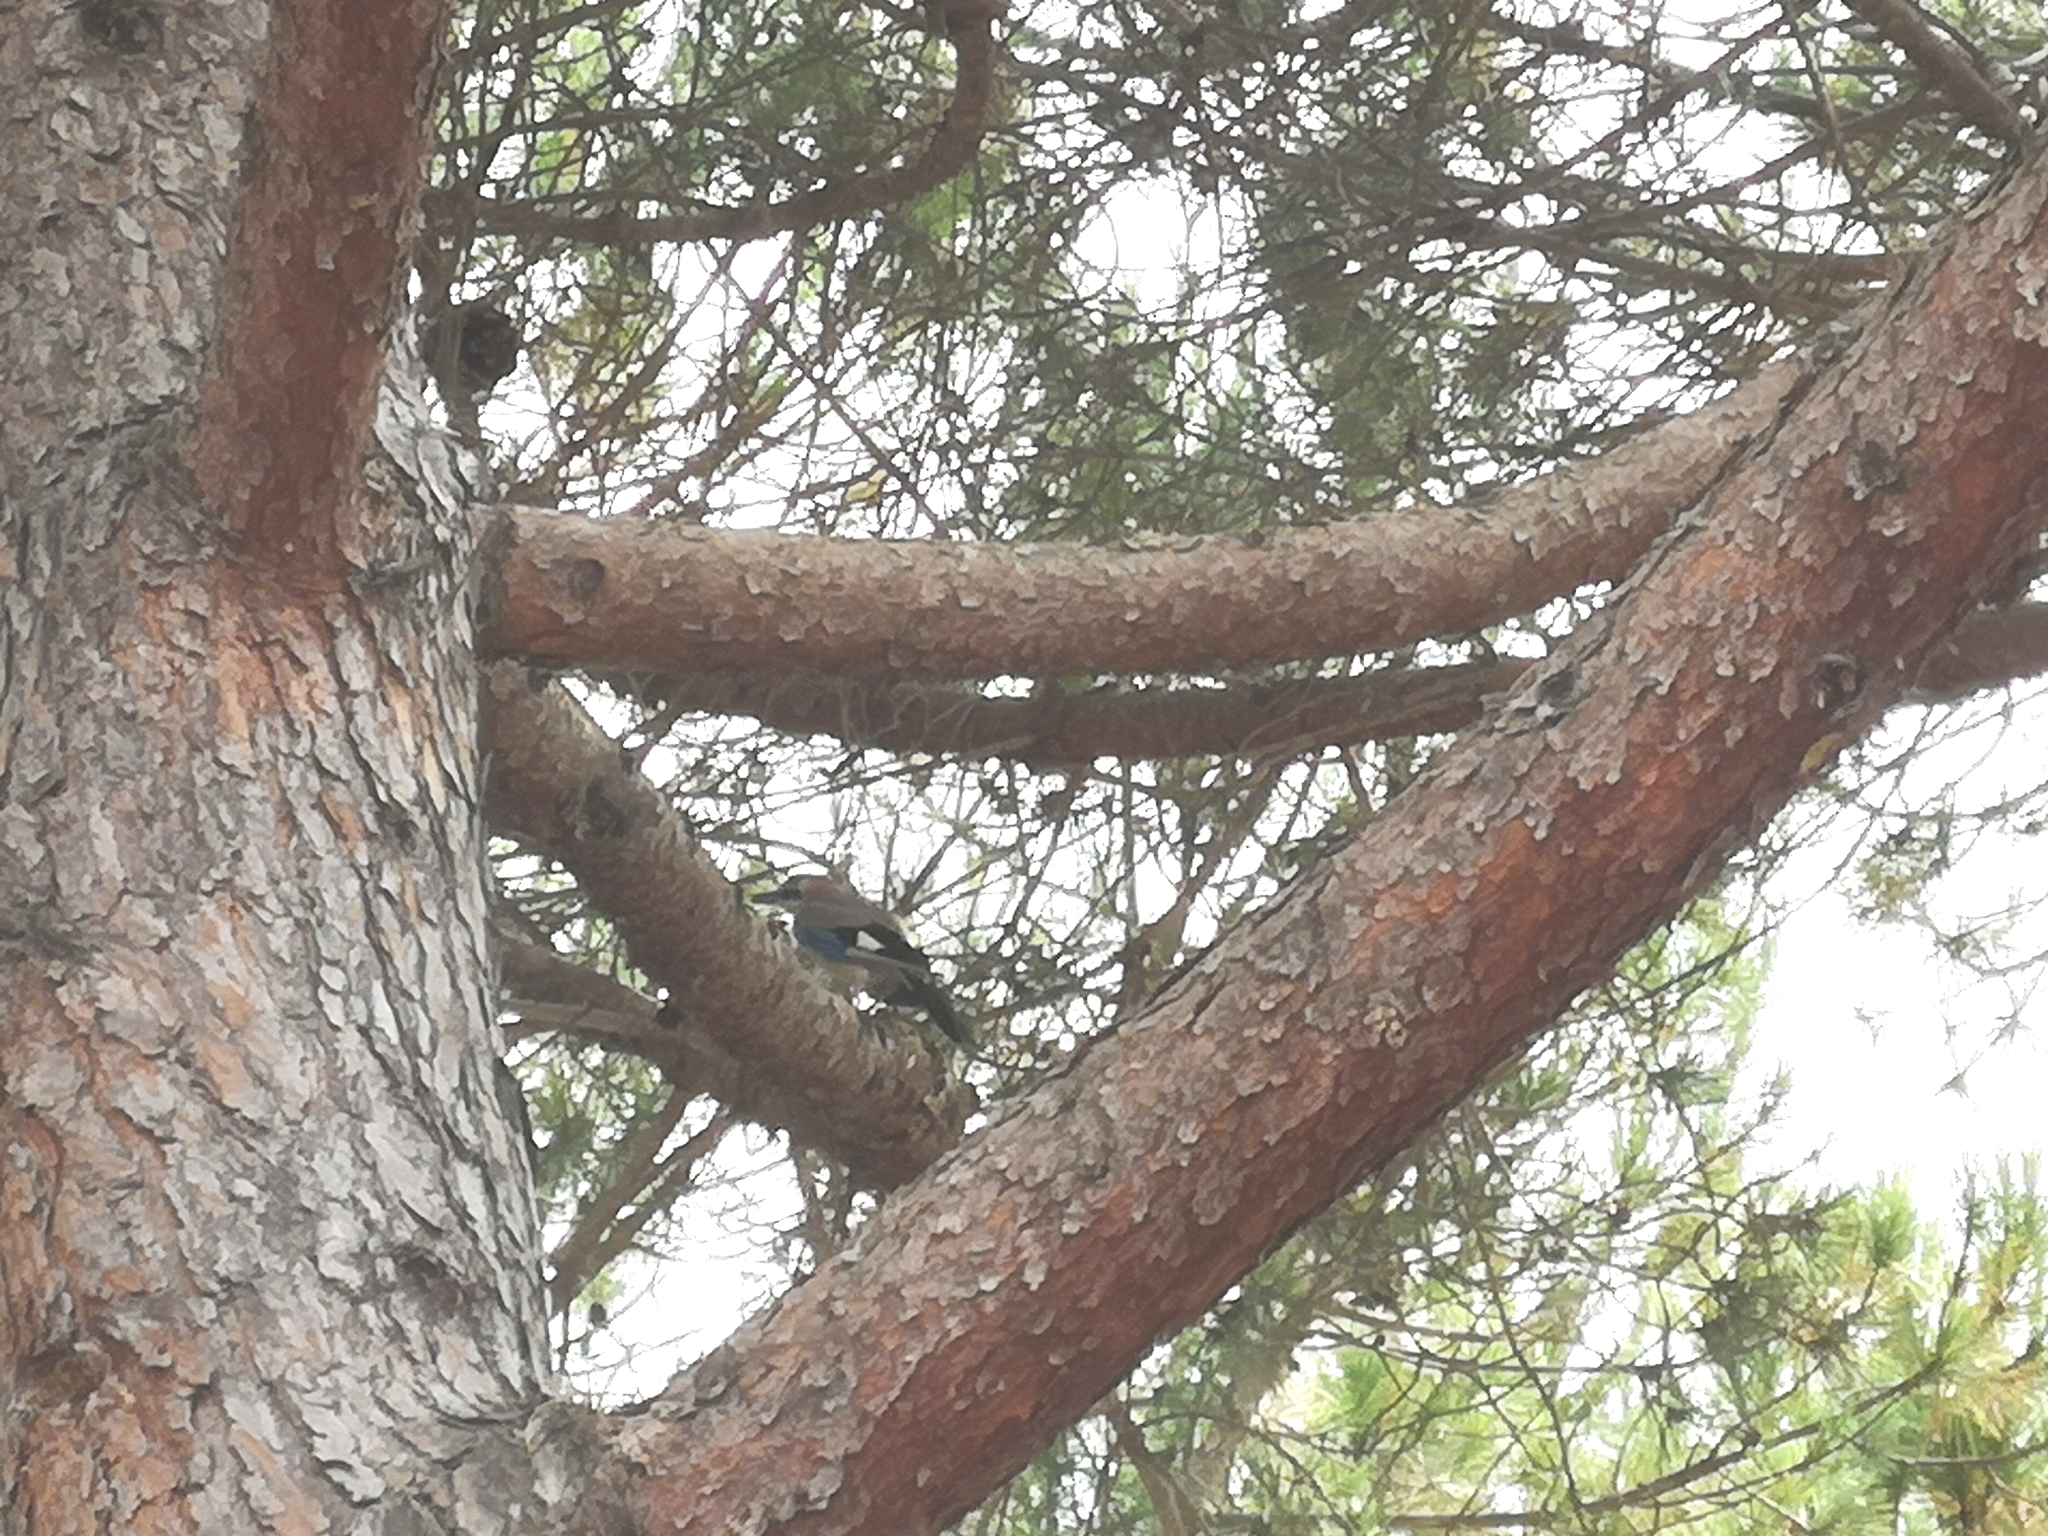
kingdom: Animalia
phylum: Chordata
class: Aves
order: Passeriformes
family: Corvidae
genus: Garrulus
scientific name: Garrulus glandarius
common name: Eurasian jay
